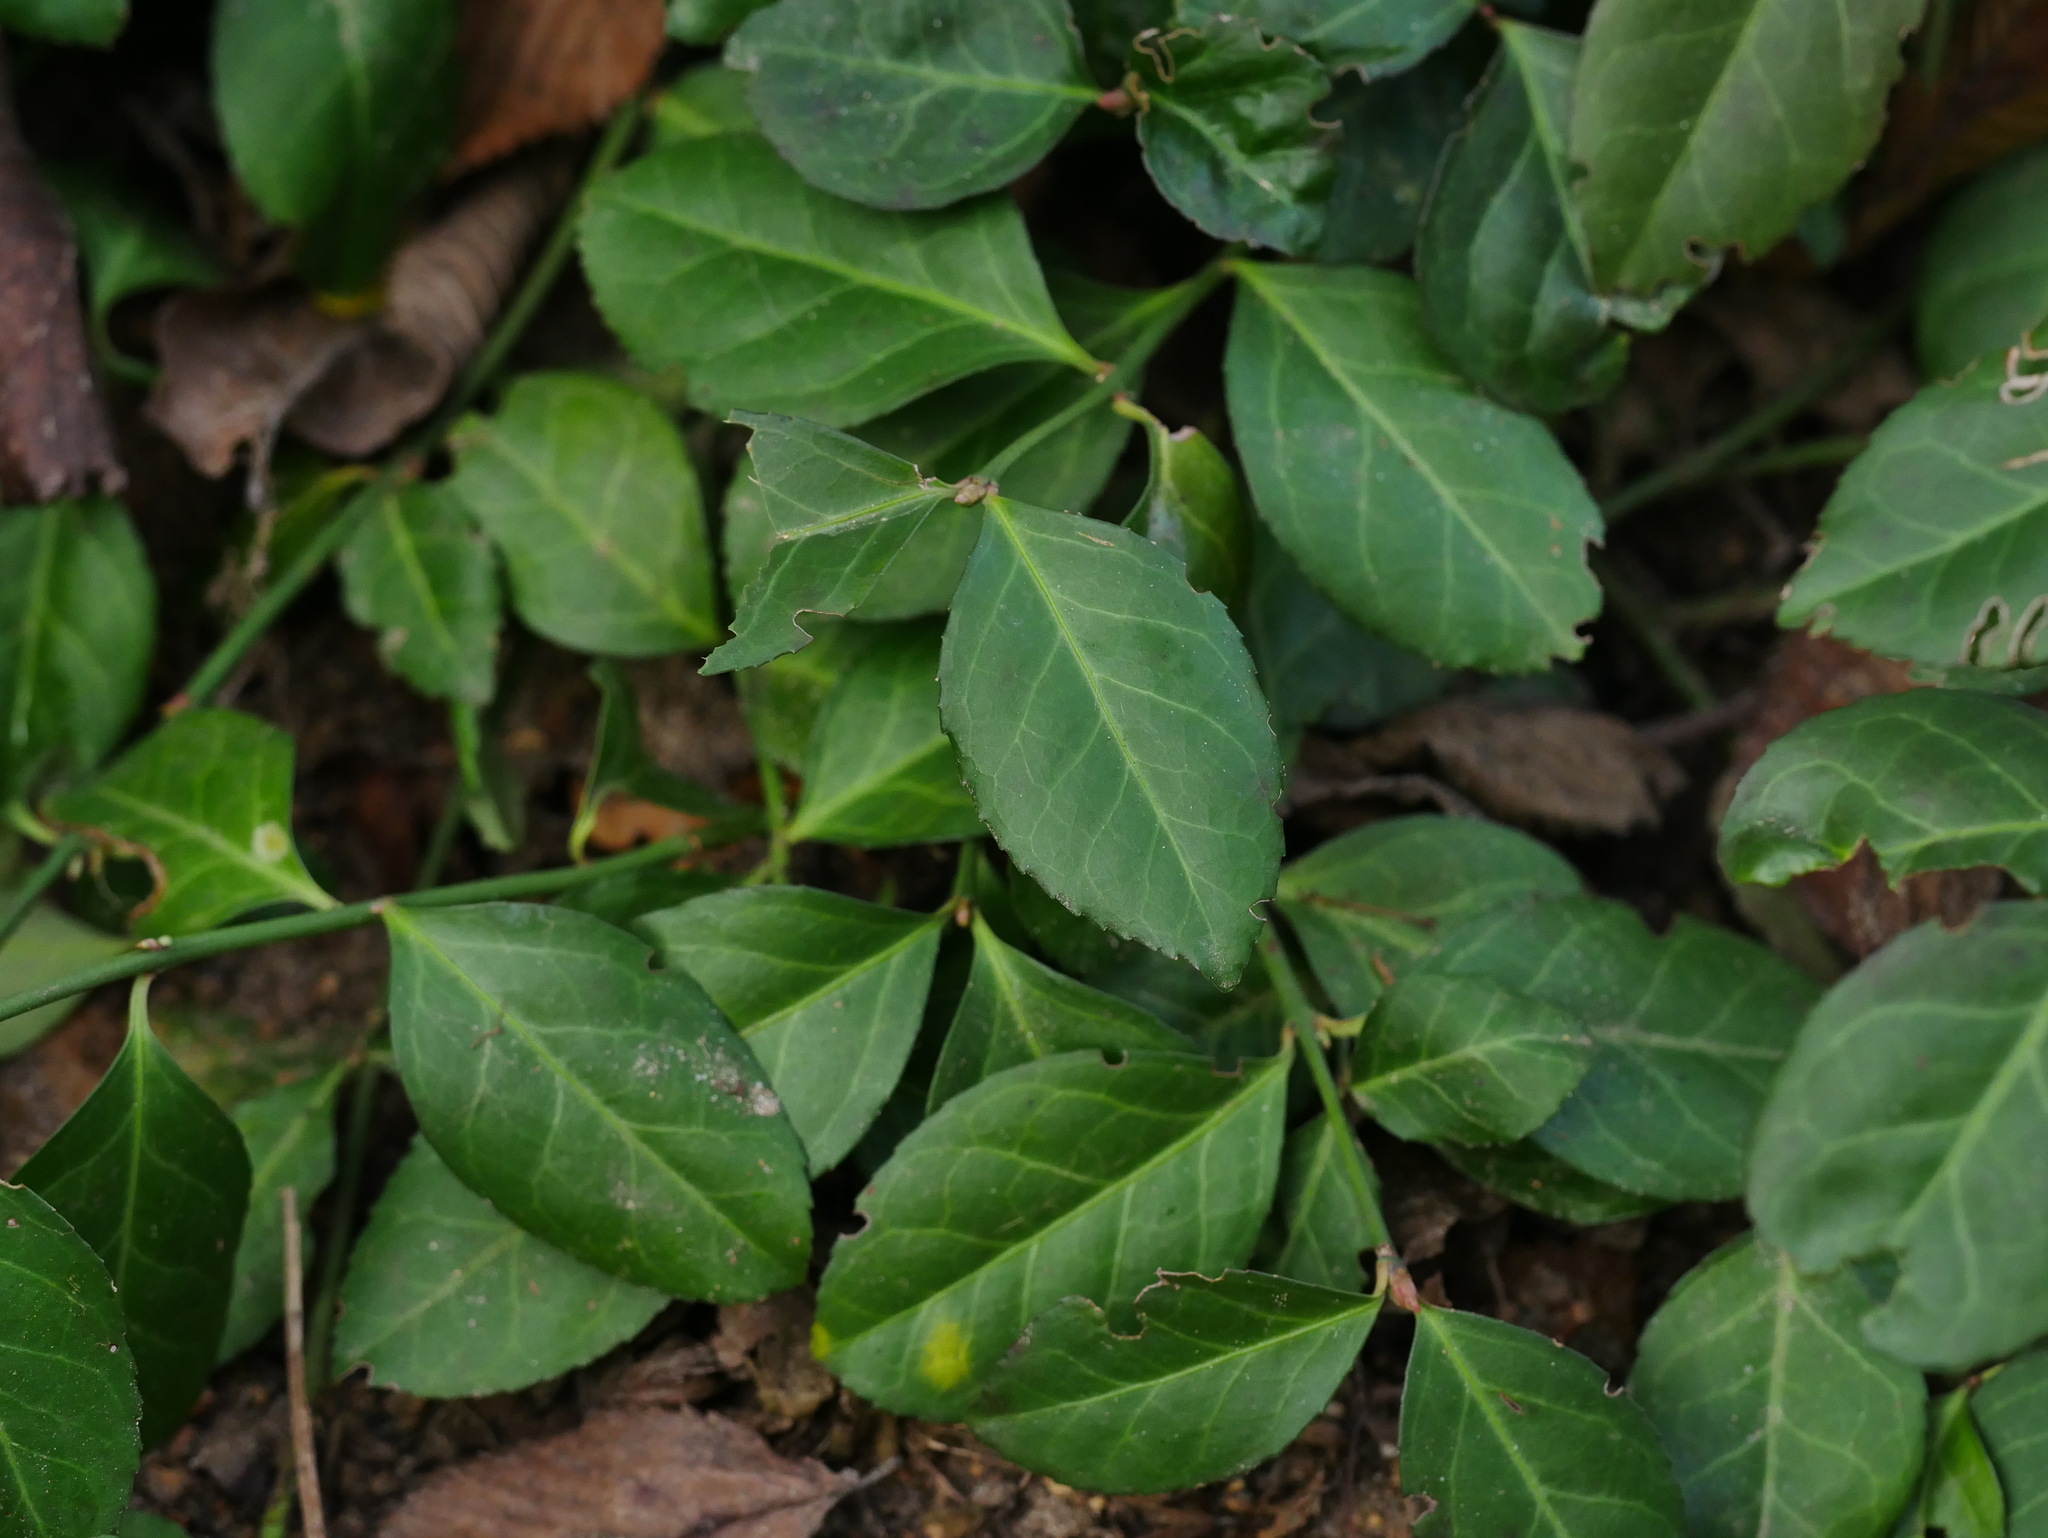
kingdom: Plantae
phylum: Tracheophyta
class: Magnoliopsida
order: Celastrales
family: Celastraceae
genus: Euonymus
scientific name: Euonymus fortunei
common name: Climbing euonymus
